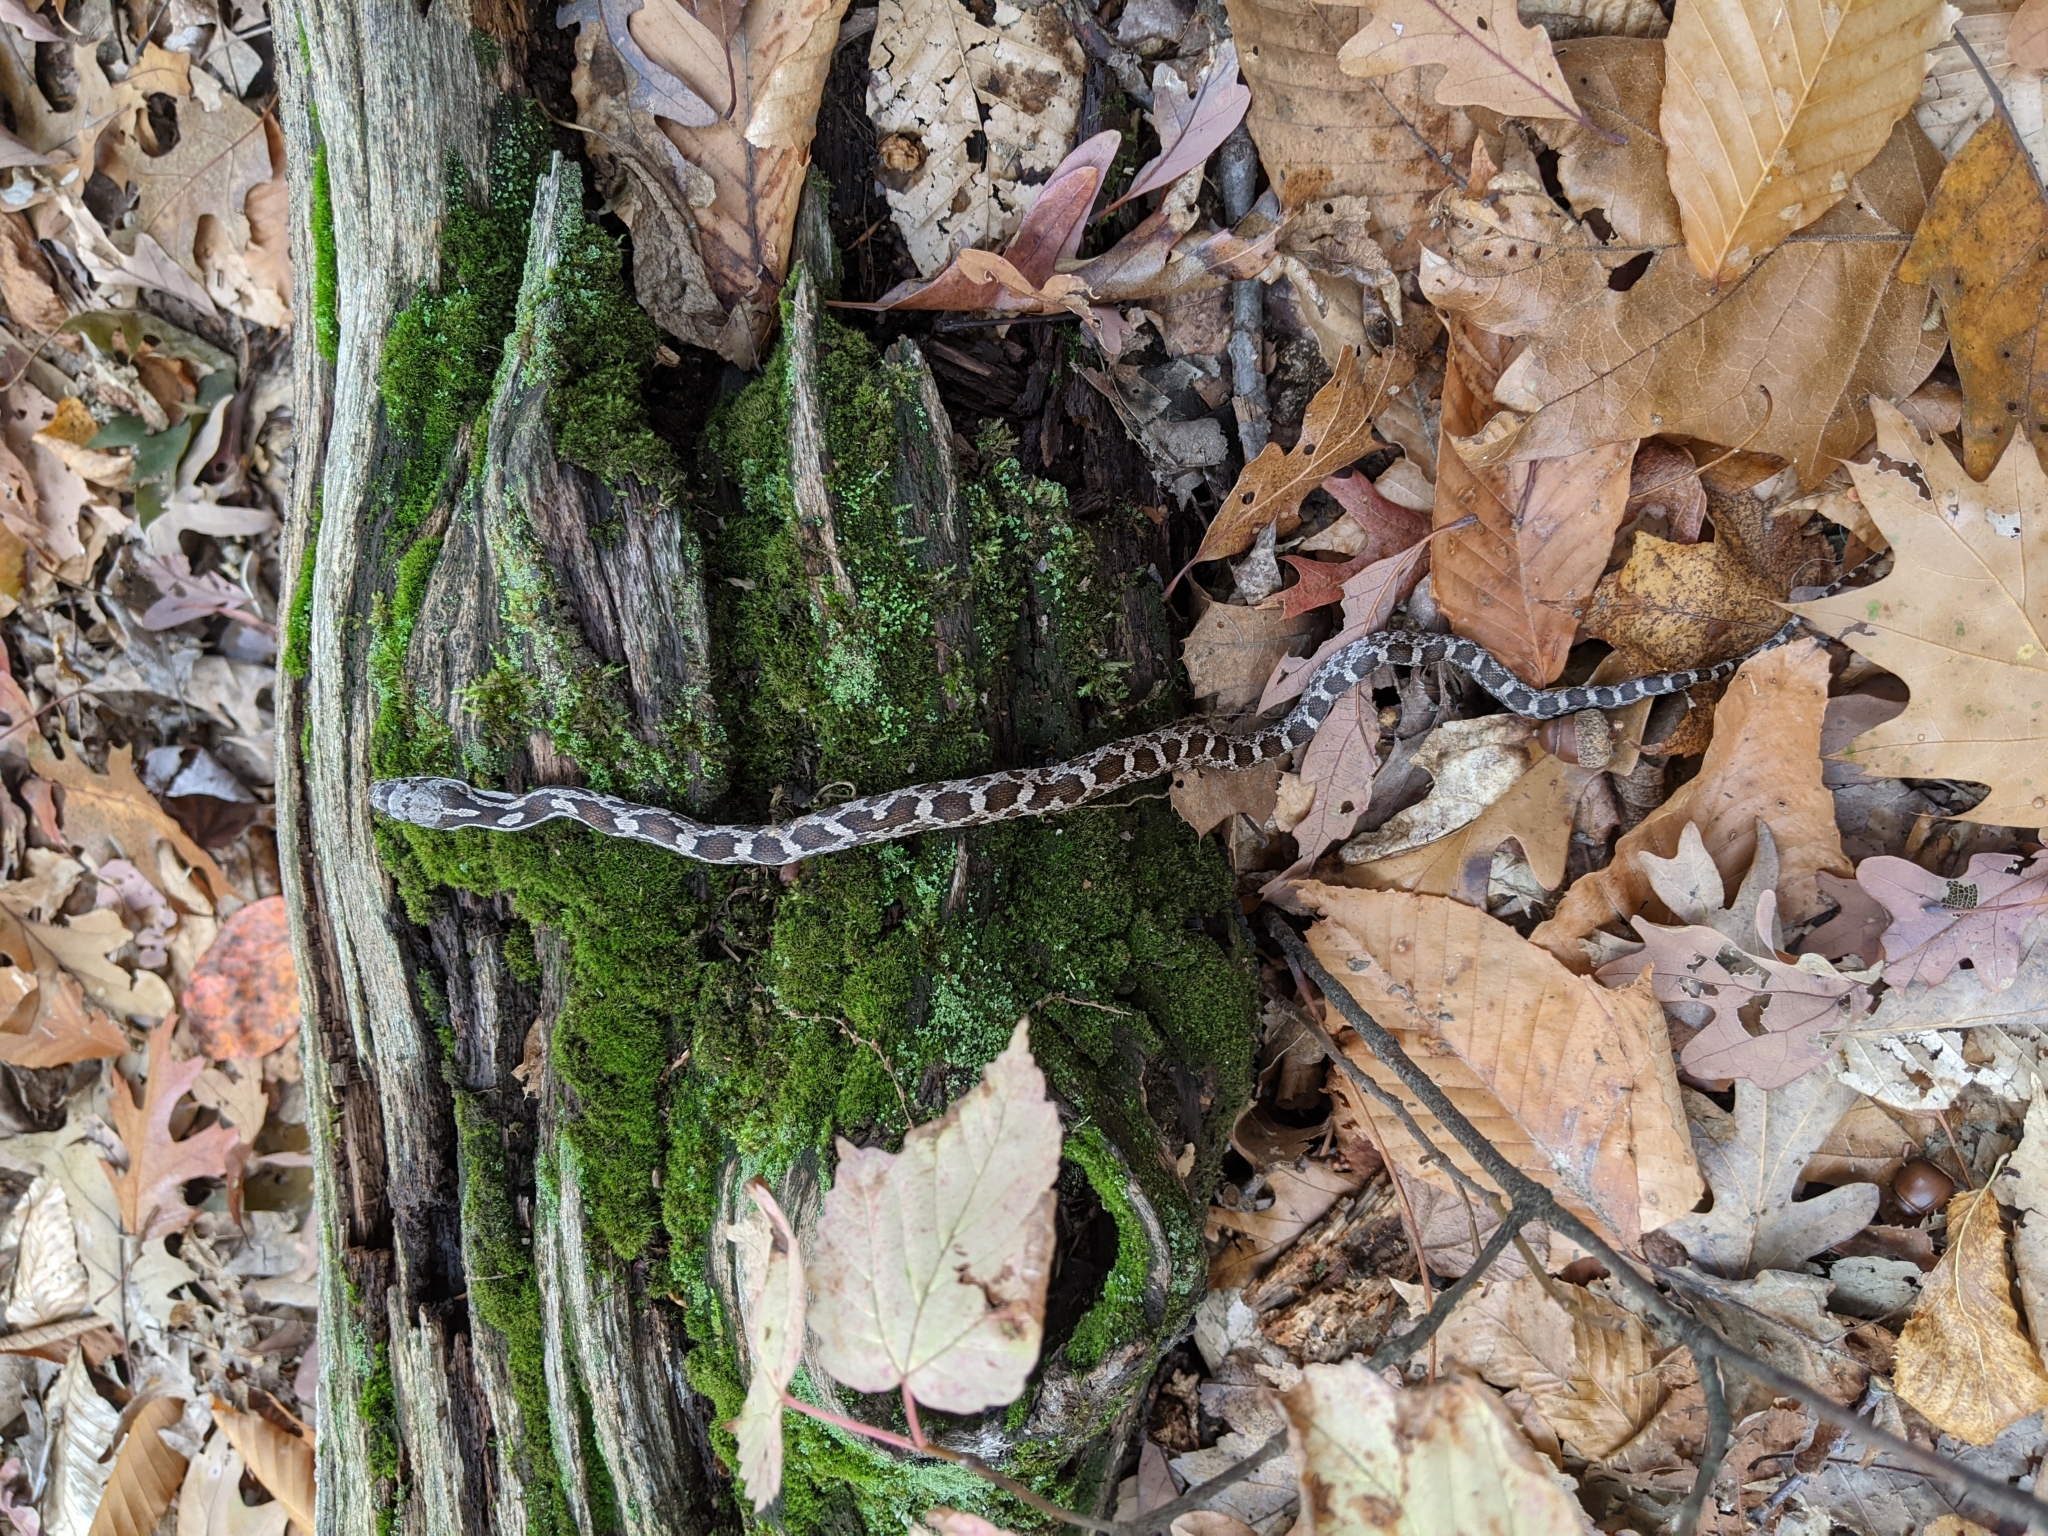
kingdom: Animalia
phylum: Chordata
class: Squamata
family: Colubridae
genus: Pantherophis
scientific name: Pantherophis spiloides
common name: Gray rat snake
